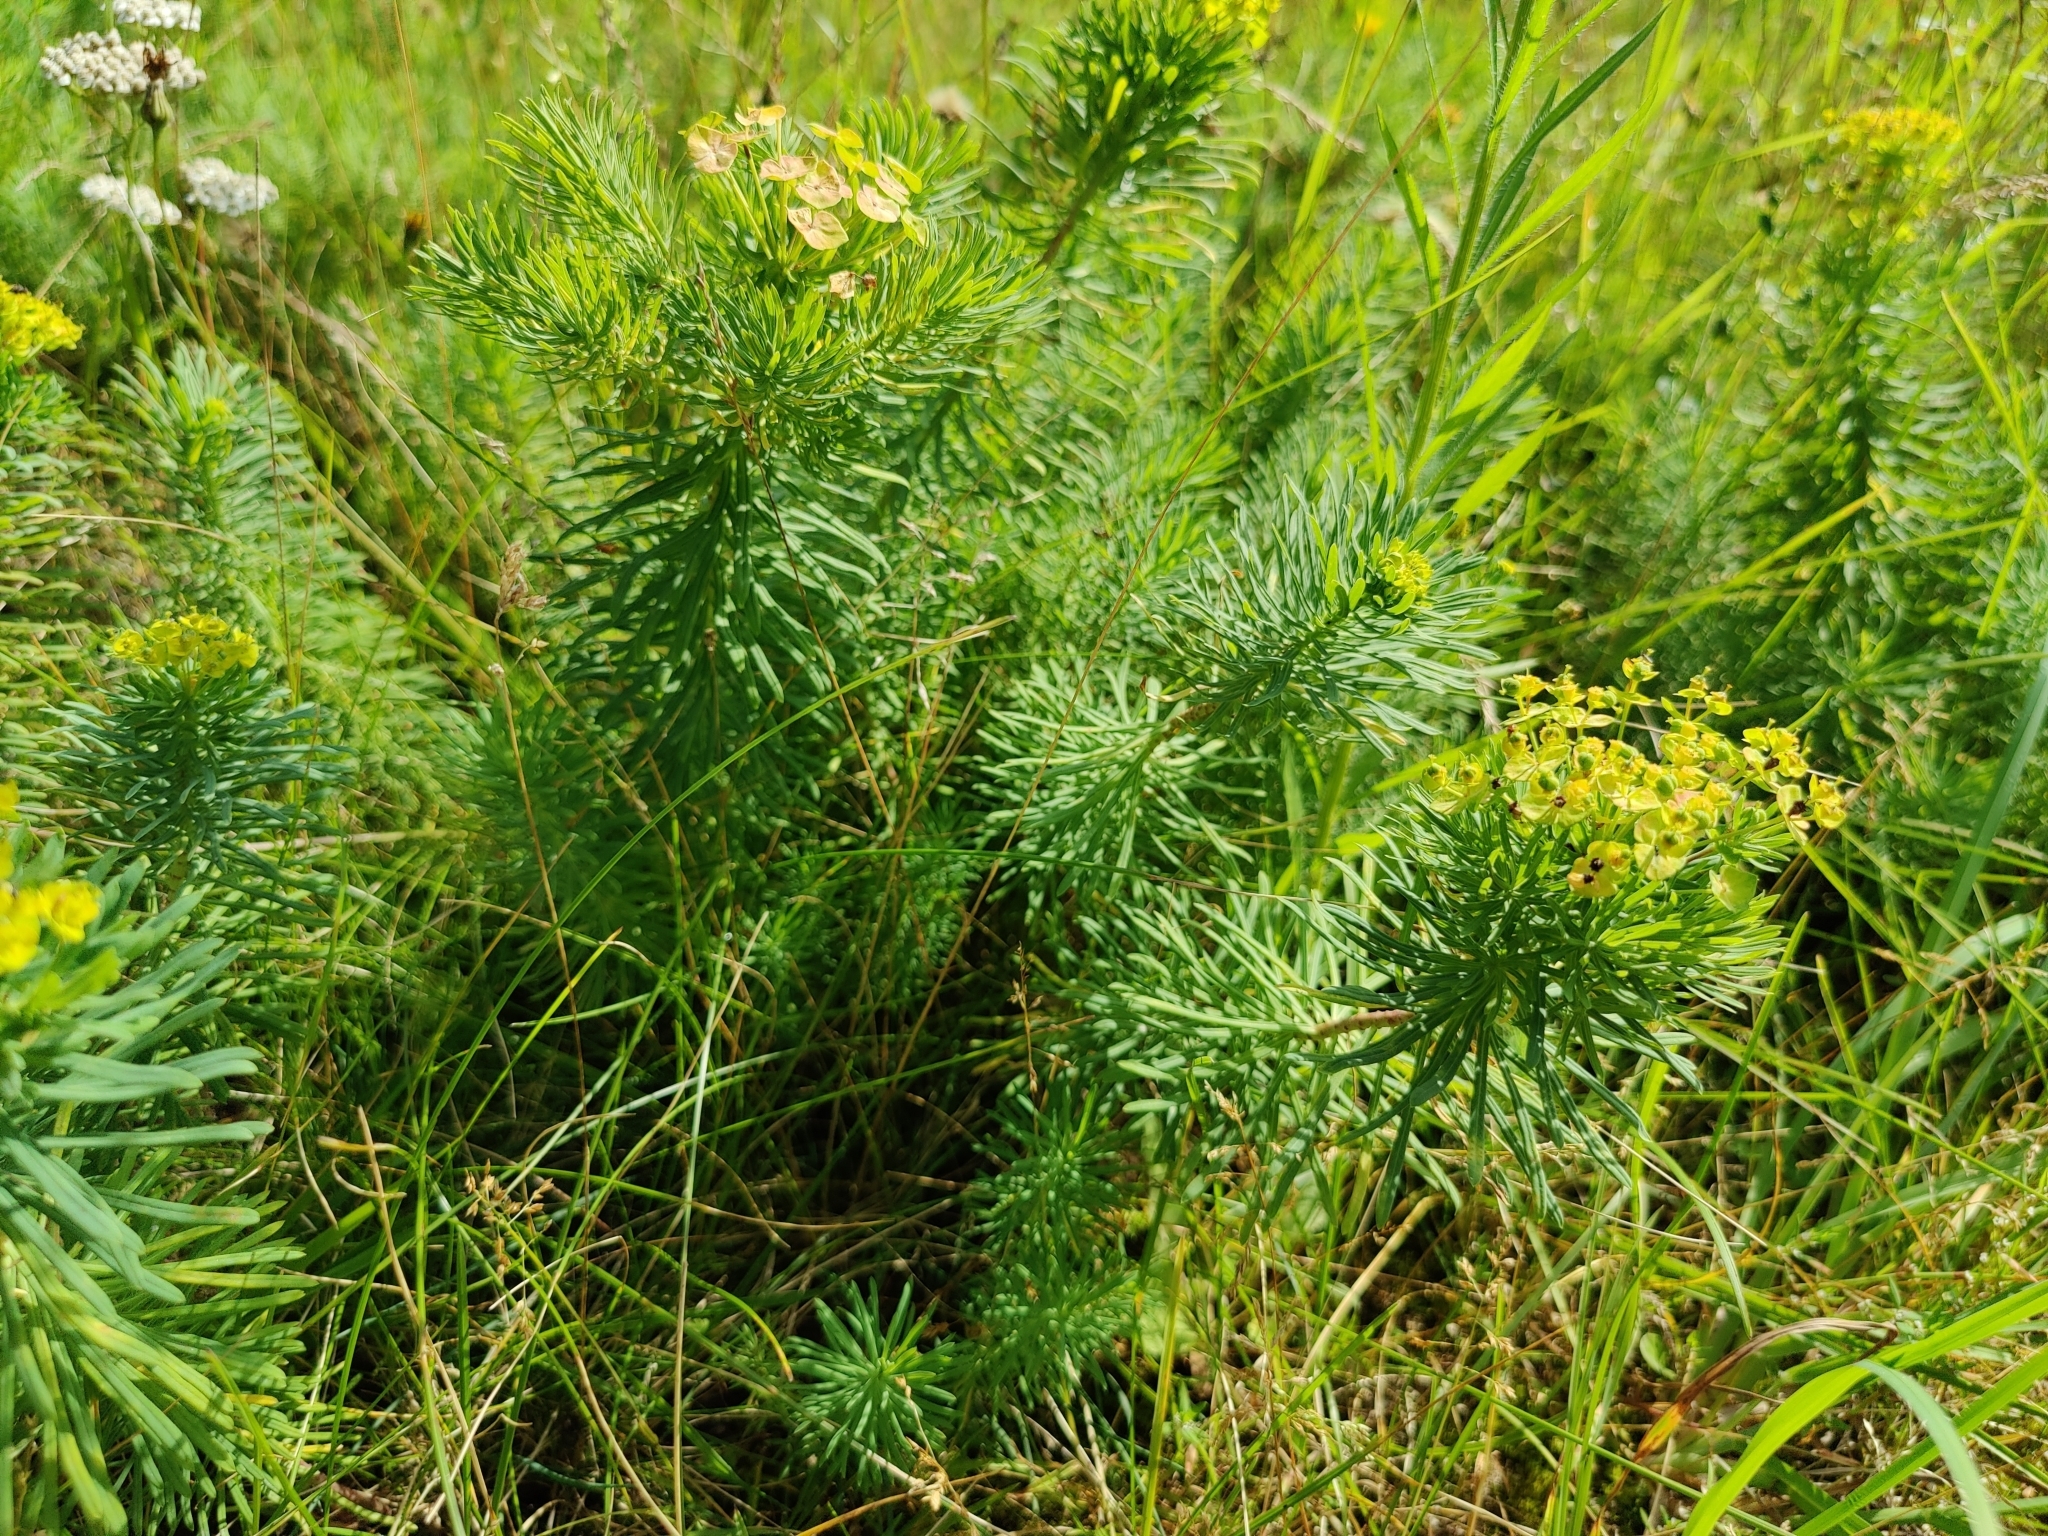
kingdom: Plantae
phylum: Tracheophyta
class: Magnoliopsida
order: Malpighiales
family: Euphorbiaceae
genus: Euphorbia
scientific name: Euphorbia cyparissias
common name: Cypress spurge
